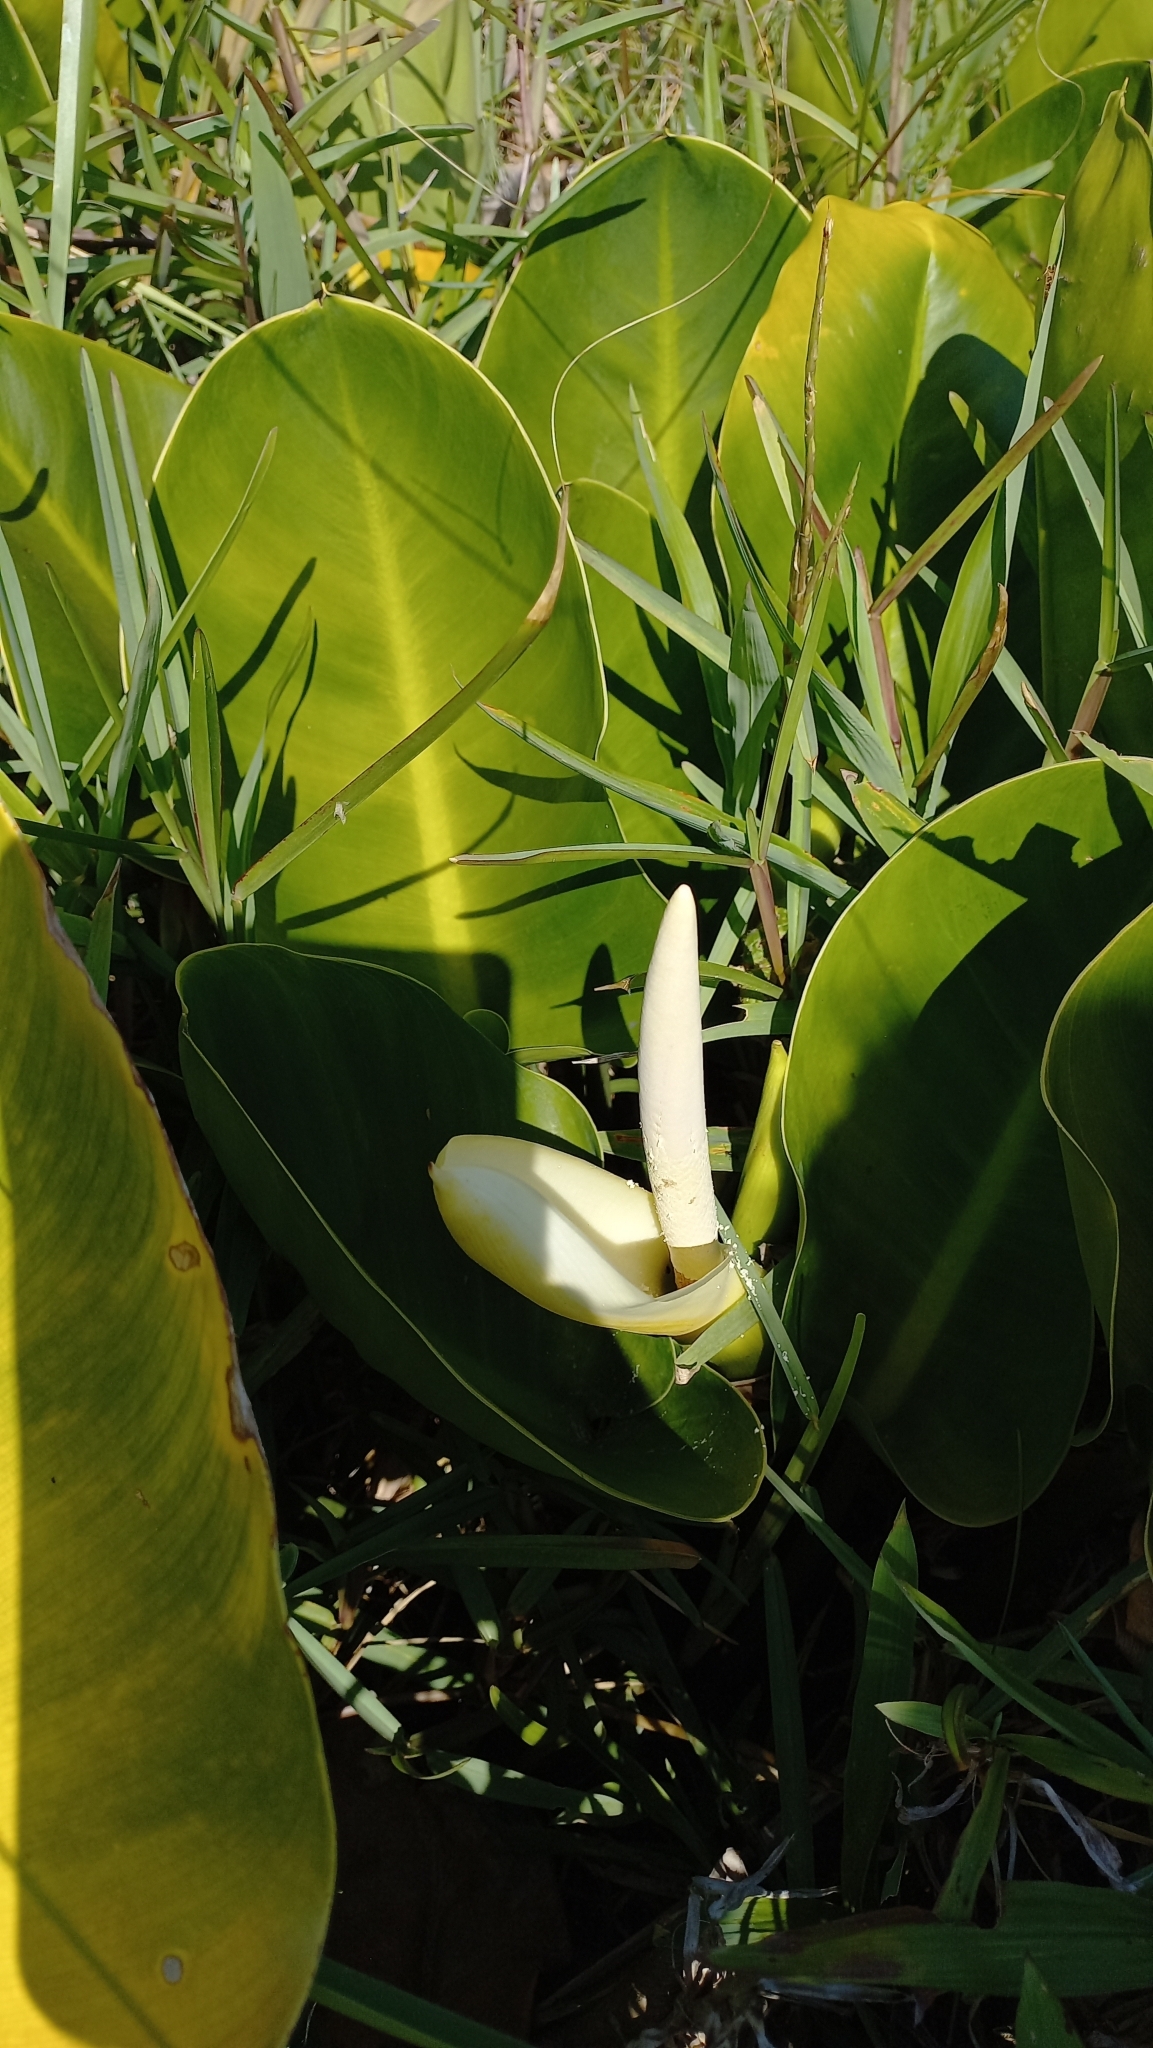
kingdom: Plantae
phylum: Tracheophyta
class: Liliopsida
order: Alismatales
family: Araceae
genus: Philodendron
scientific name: Philodendron renauxii
